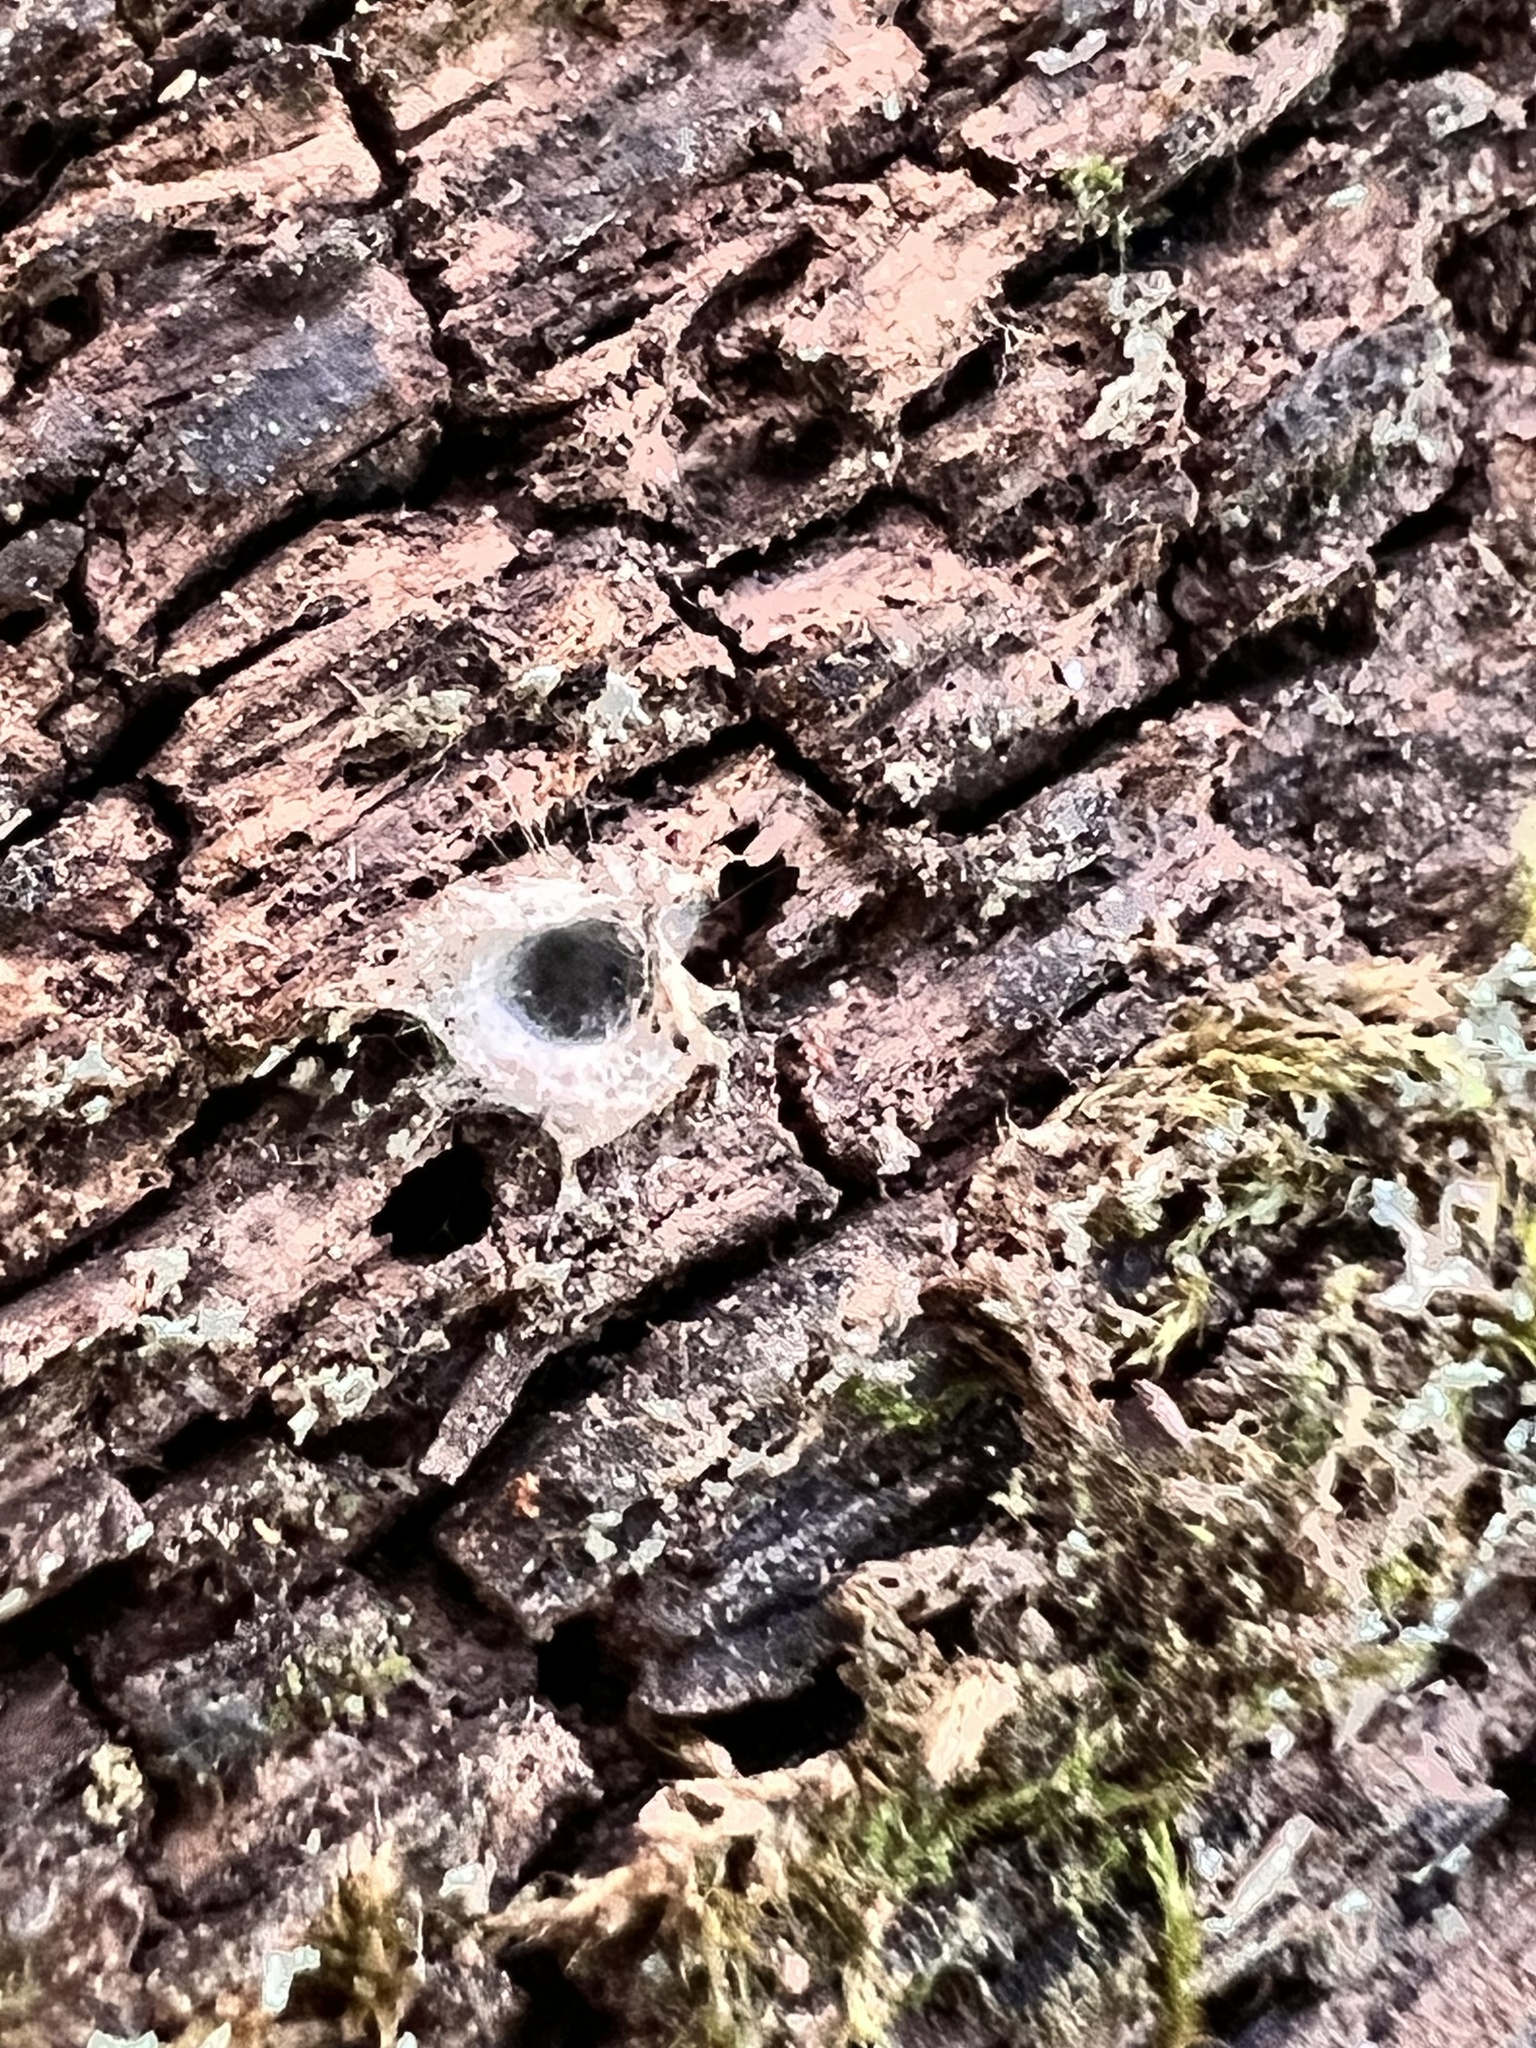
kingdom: Animalia
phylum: Arthropoda
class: Arachnida
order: Araneae
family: Segestriidae
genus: Ariadna
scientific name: Ariadna bicolor
